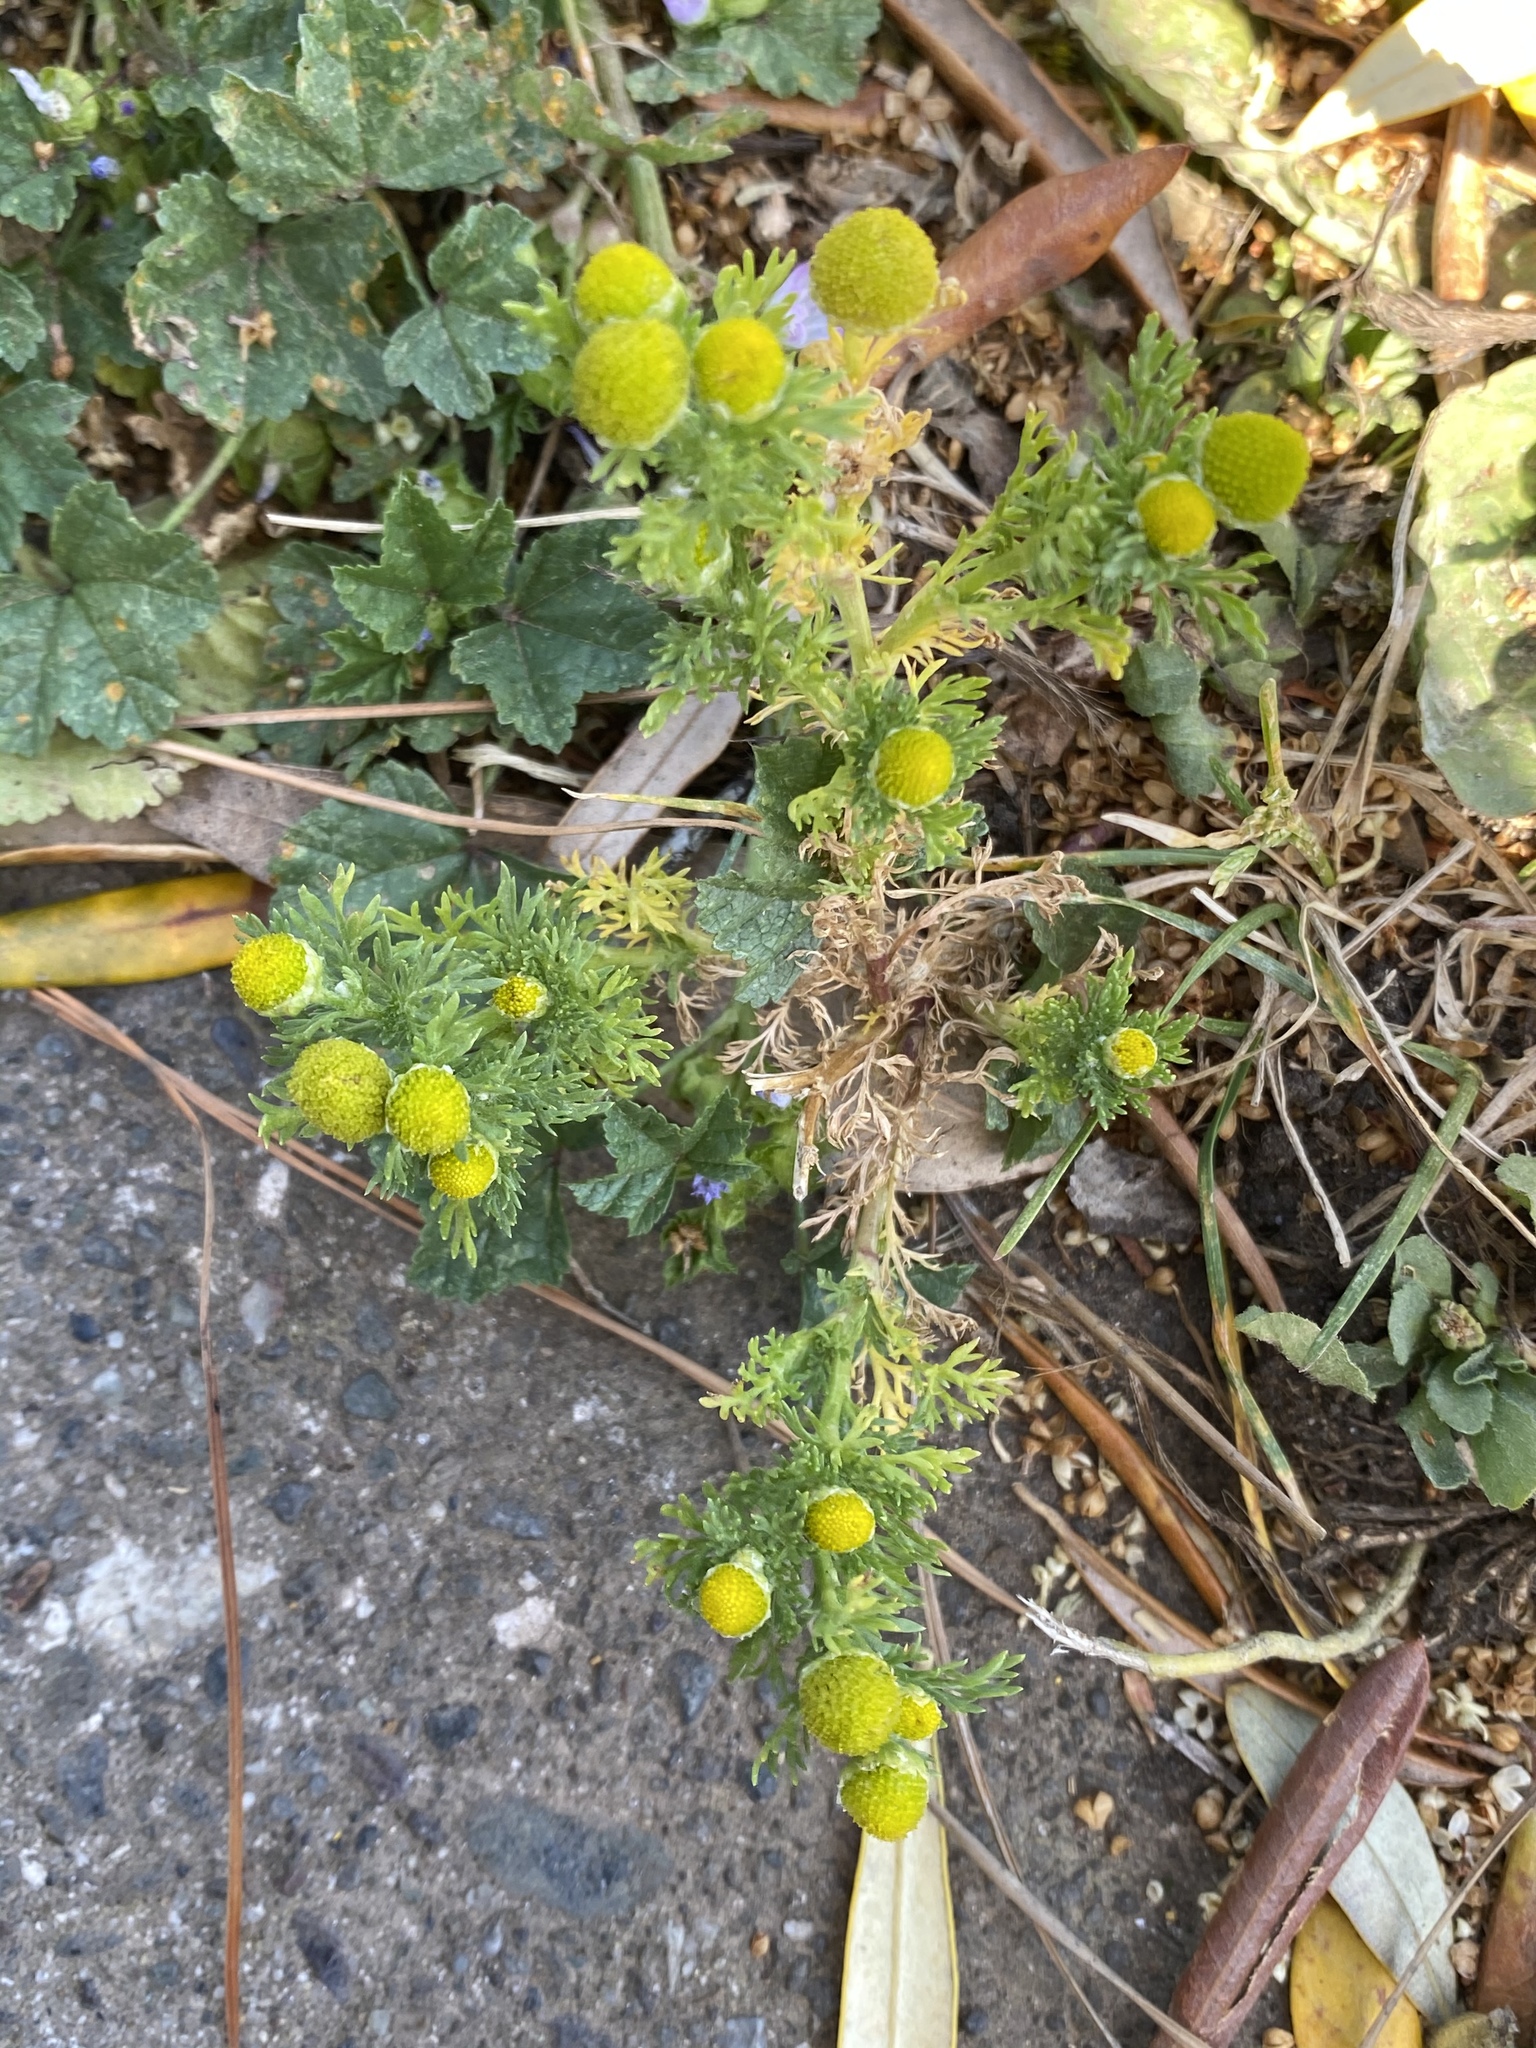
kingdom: Plantae
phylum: Tracheophyta
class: Magnoliopsida
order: Asterales
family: Asteraceae
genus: Matricaria
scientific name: Matricaria discoidea
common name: Disc mayweed
